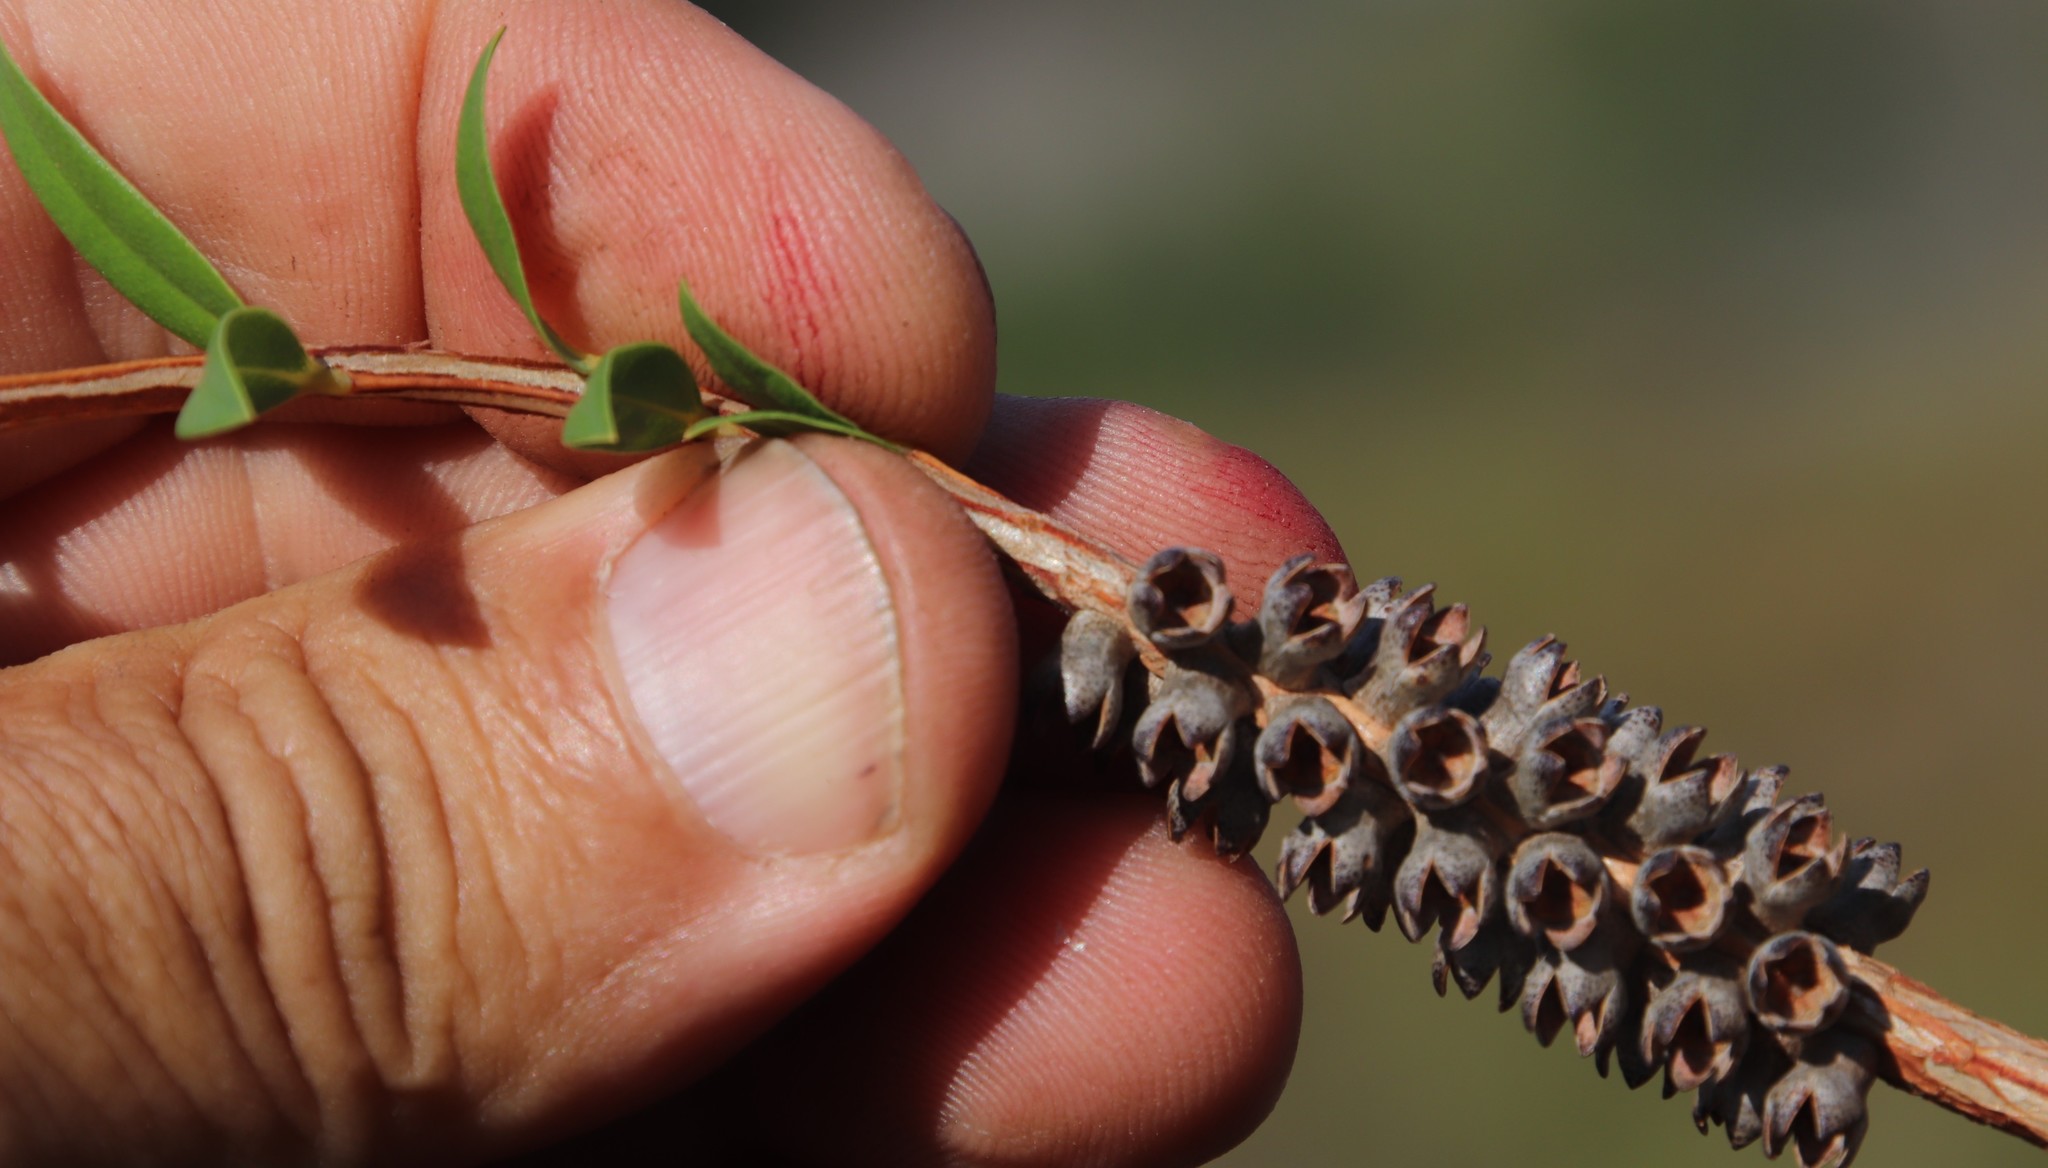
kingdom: Plantae
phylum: Tracheophyta
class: Magnoliopsida
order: Myrtales
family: Myrtaceae
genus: Melaleuca
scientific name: Melaleuca hypericifolia
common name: Red honey myrtle
